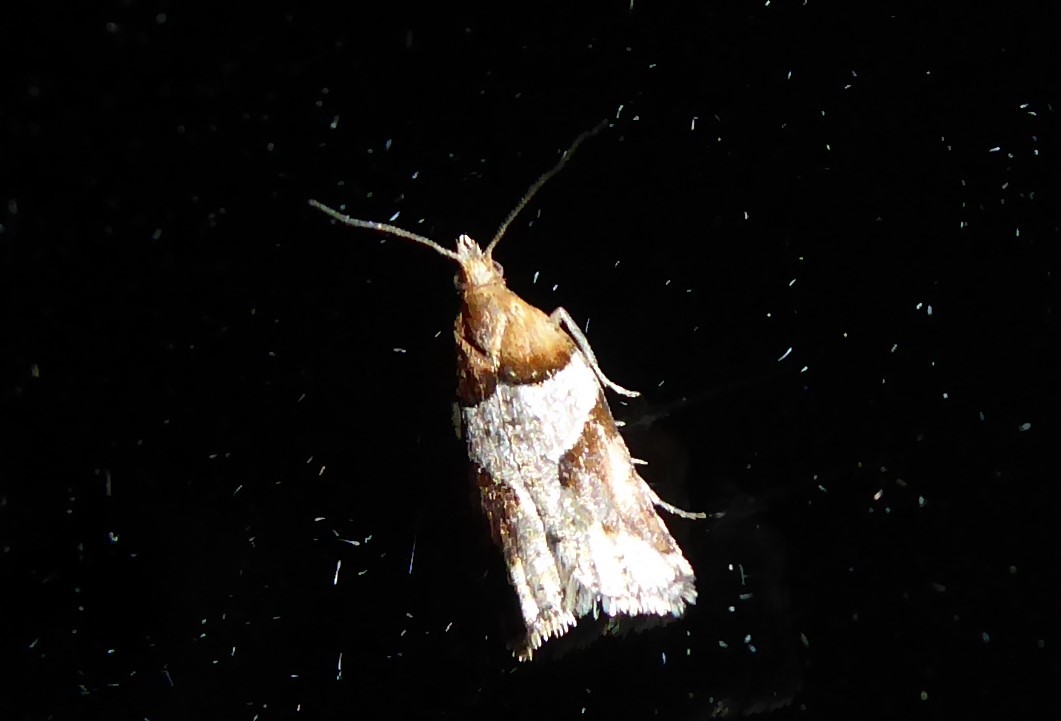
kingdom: Animalia
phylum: Arthropoda
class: Insecta
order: Lepidoptera
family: Tortricidae
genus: Epichorista
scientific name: Epichorista
